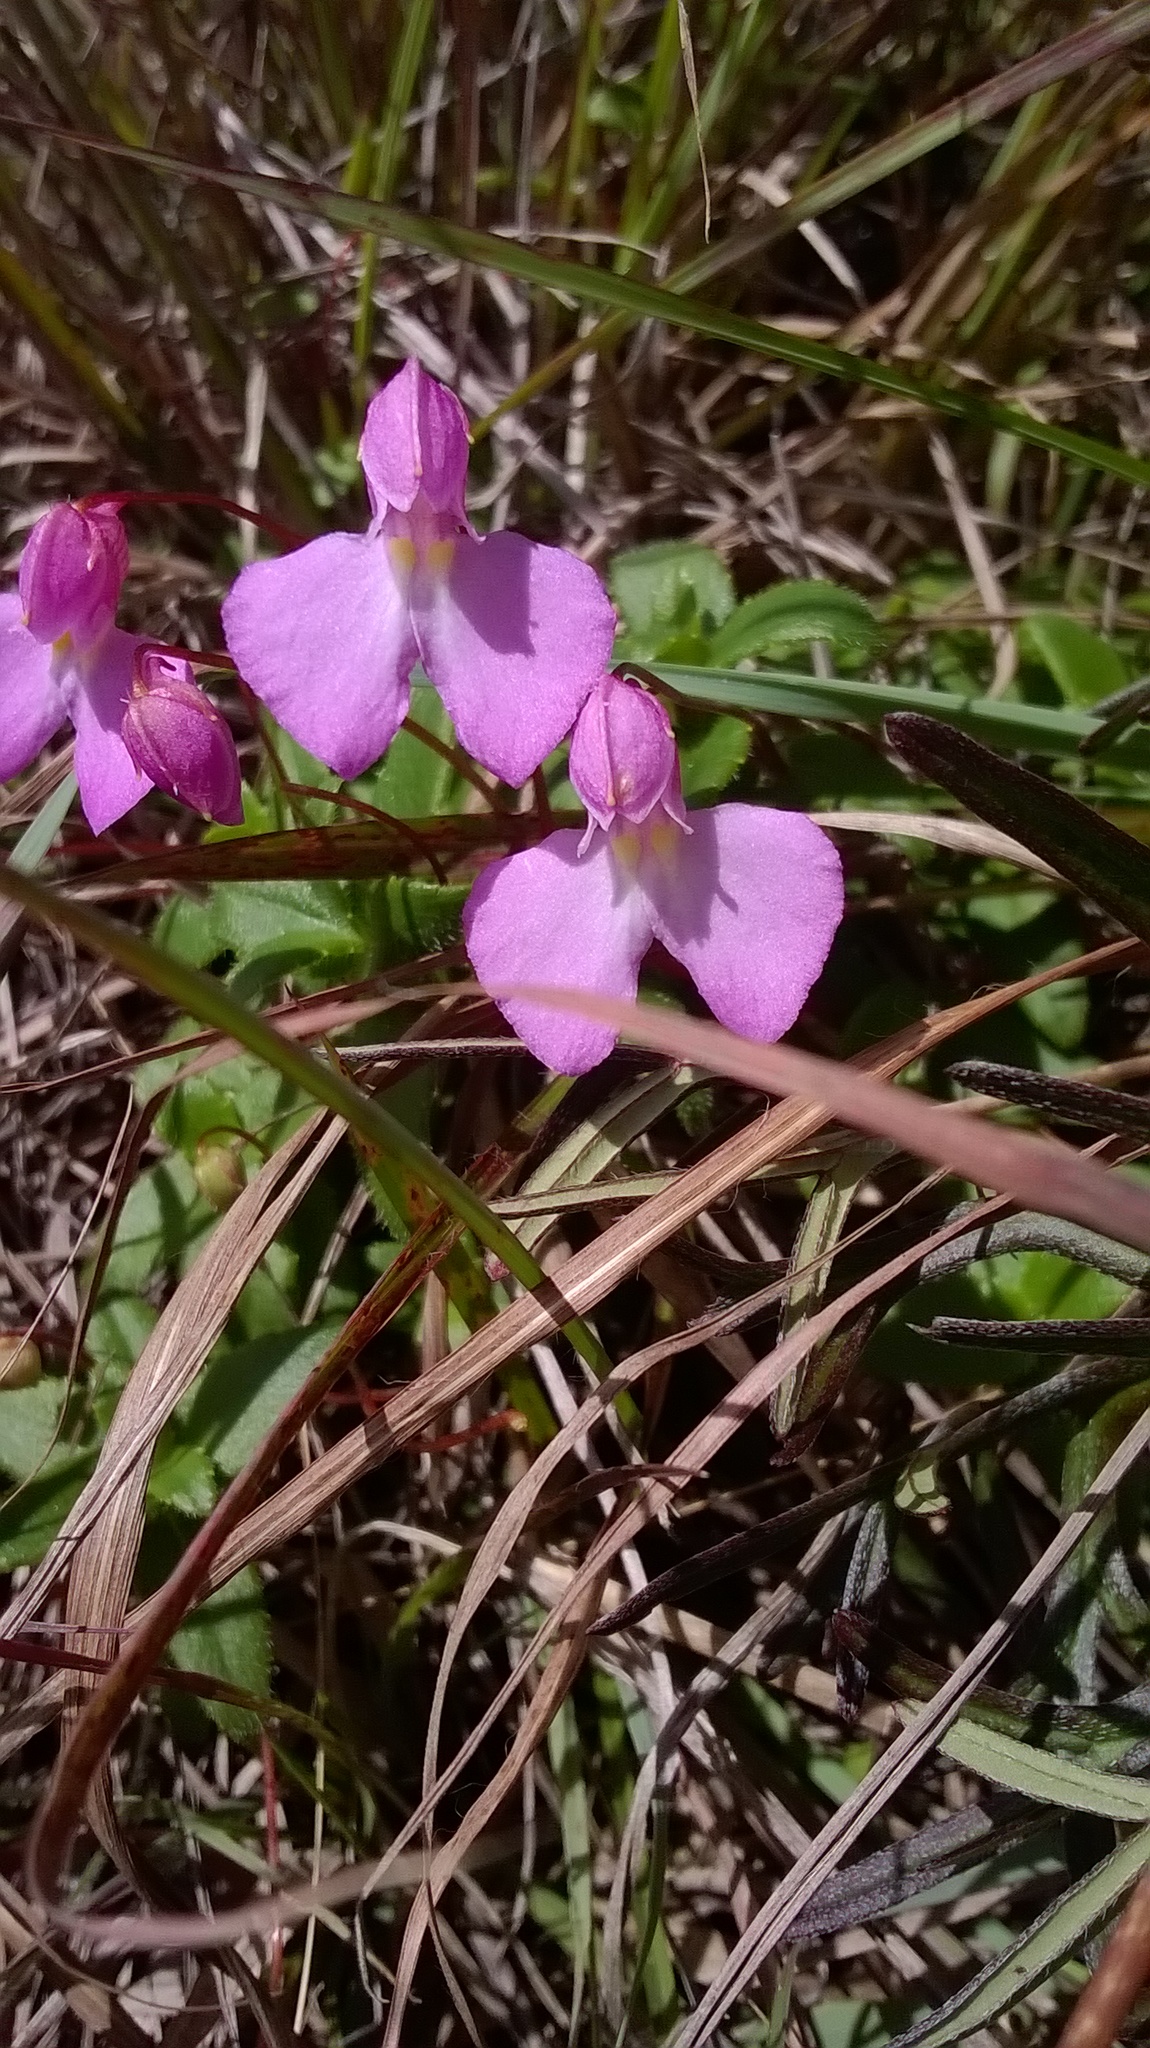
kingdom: Plantae
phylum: Tracheophyta
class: Magnoliopsida
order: Ericales
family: Balsaminaceae
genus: Impatiens
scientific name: Impatiens assurgens
